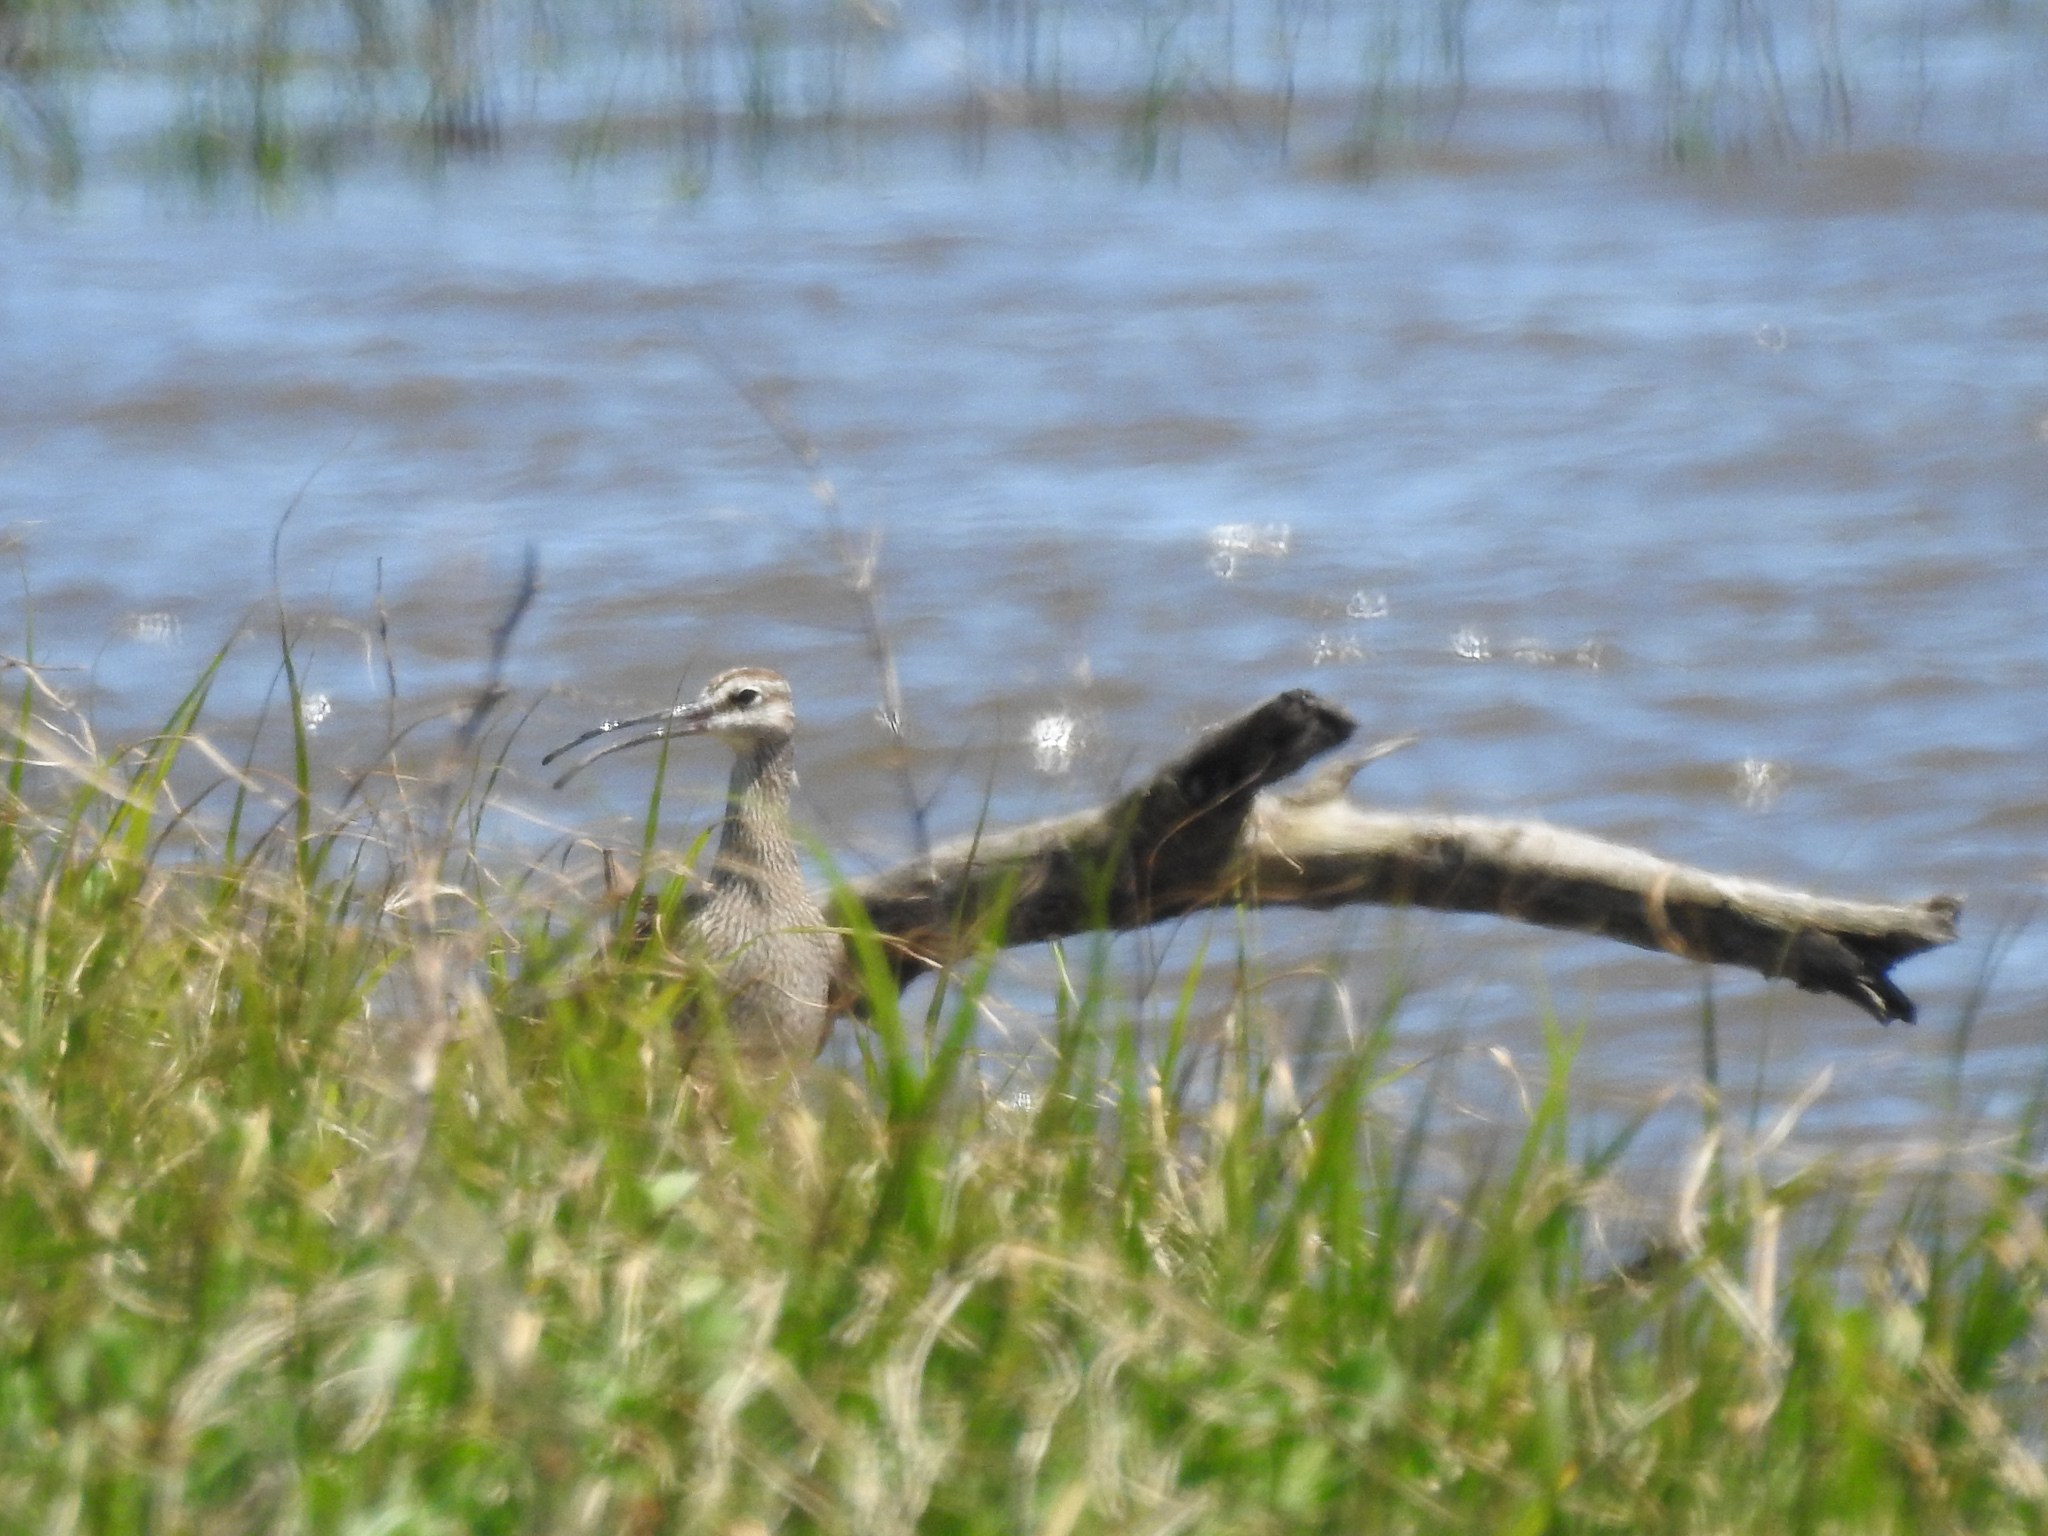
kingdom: Animalia
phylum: Chordata
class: Aves
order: Charadriiformes
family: Scolopacidae
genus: Numenius
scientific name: Numenius phaeopus
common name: Whimbrel
